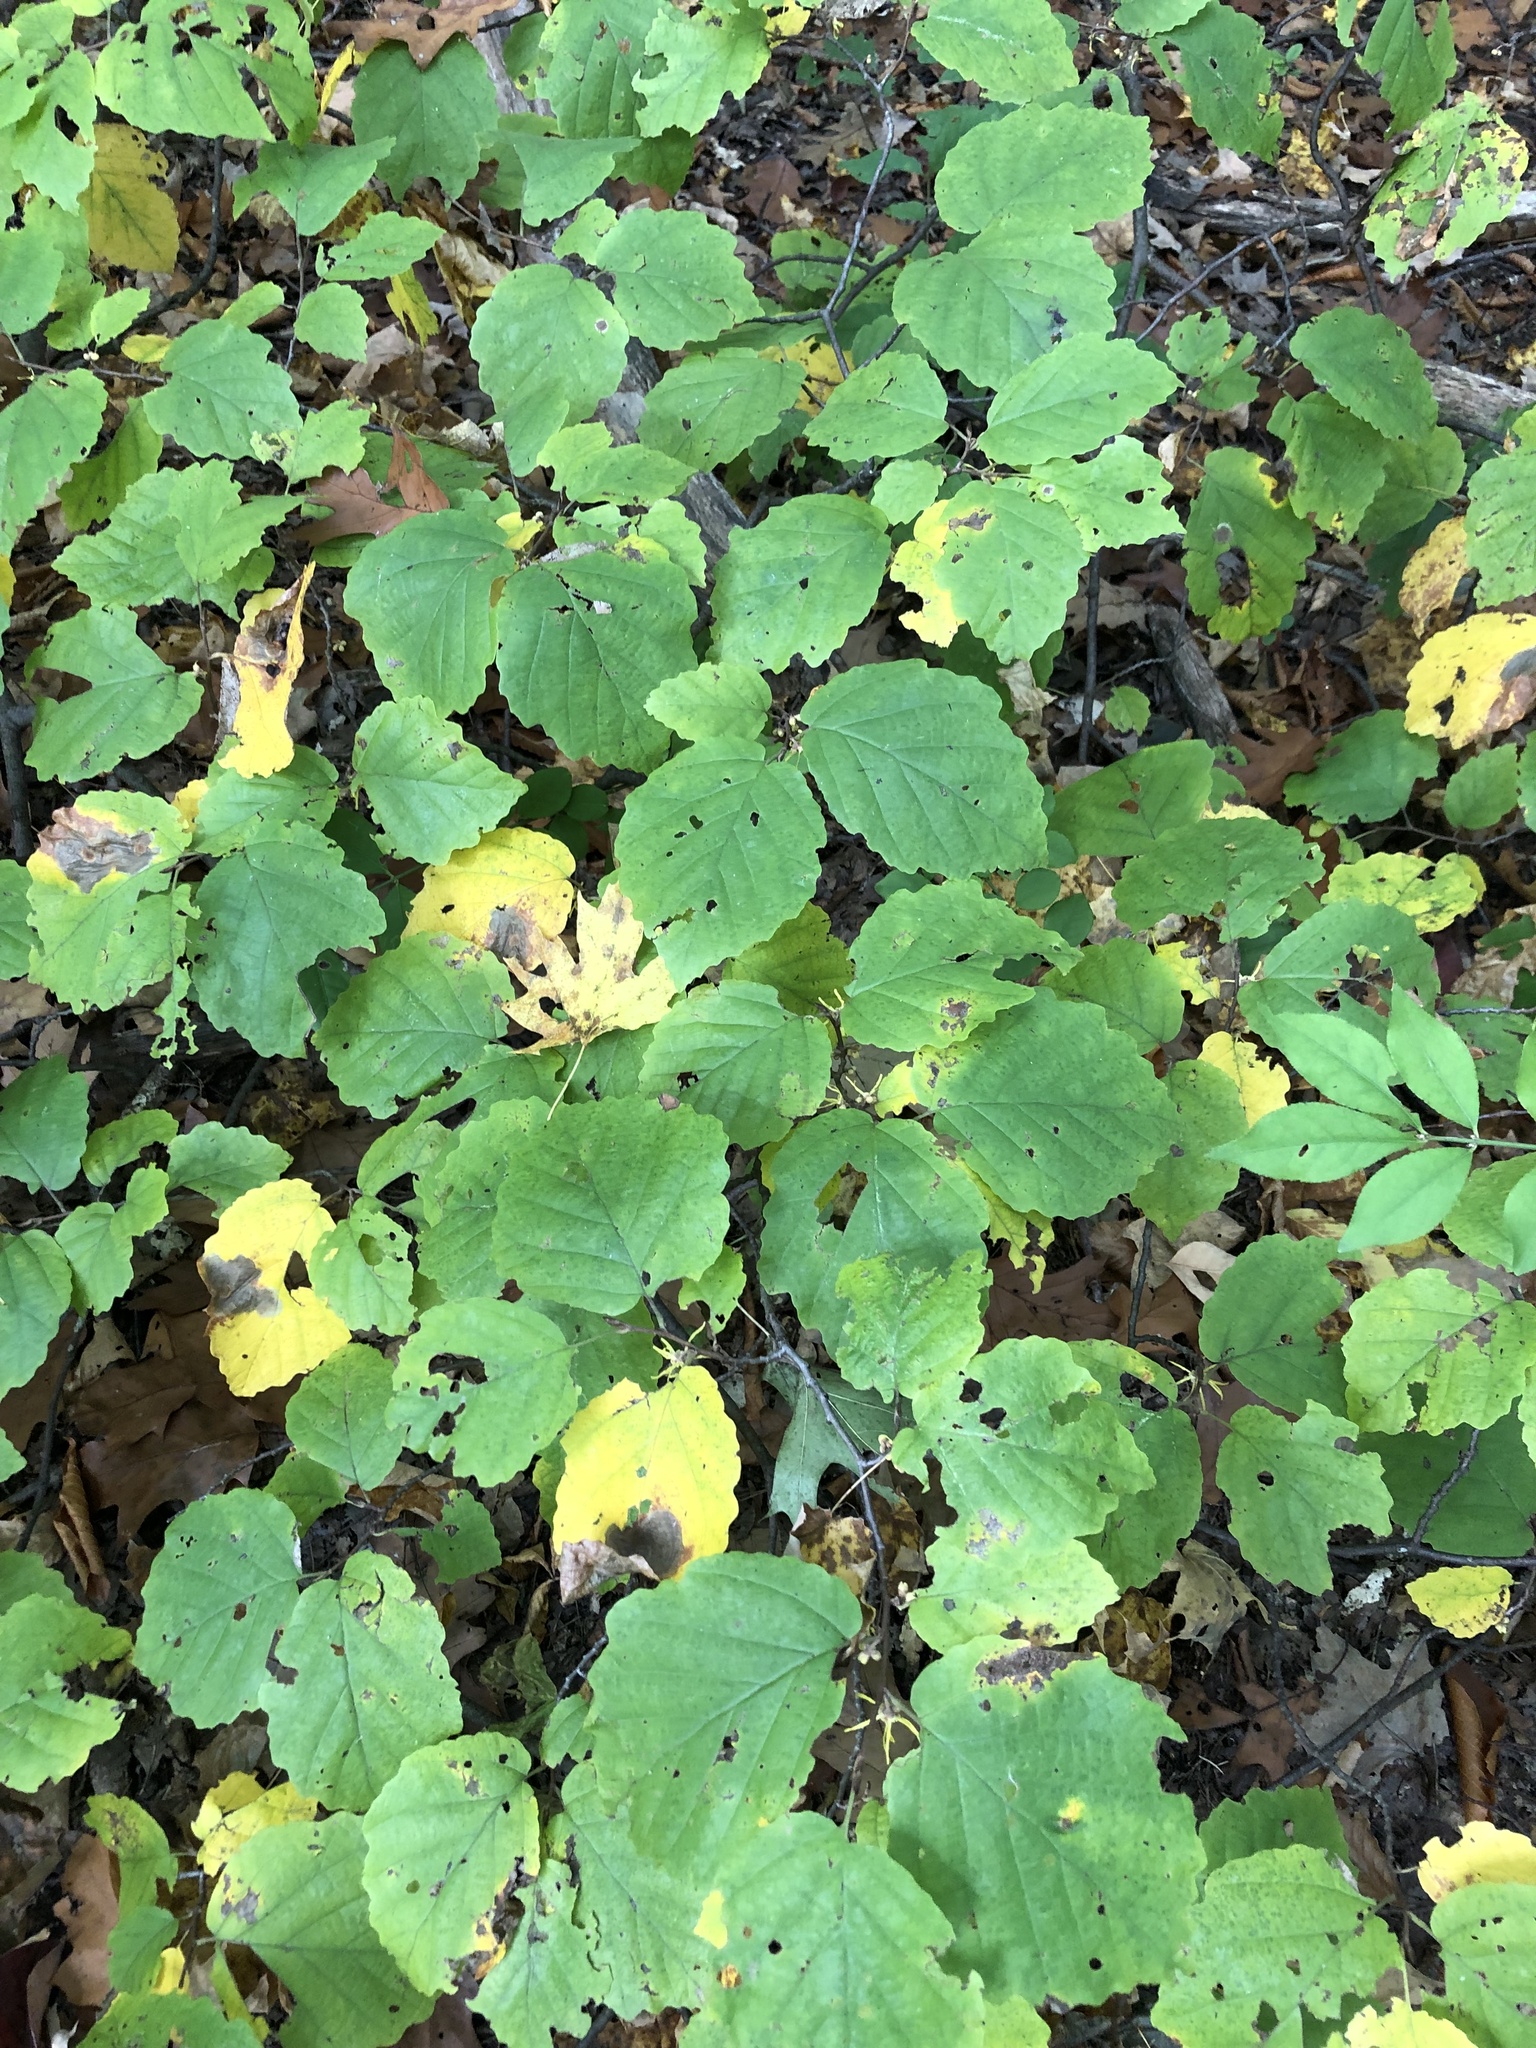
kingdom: Plantae
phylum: Tracheophyta
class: Magnoliopsida
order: Saxifragales
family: Hamamelidaceae
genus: Hamamelis
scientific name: Hamamelis virginiana
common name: Witch-hazel
